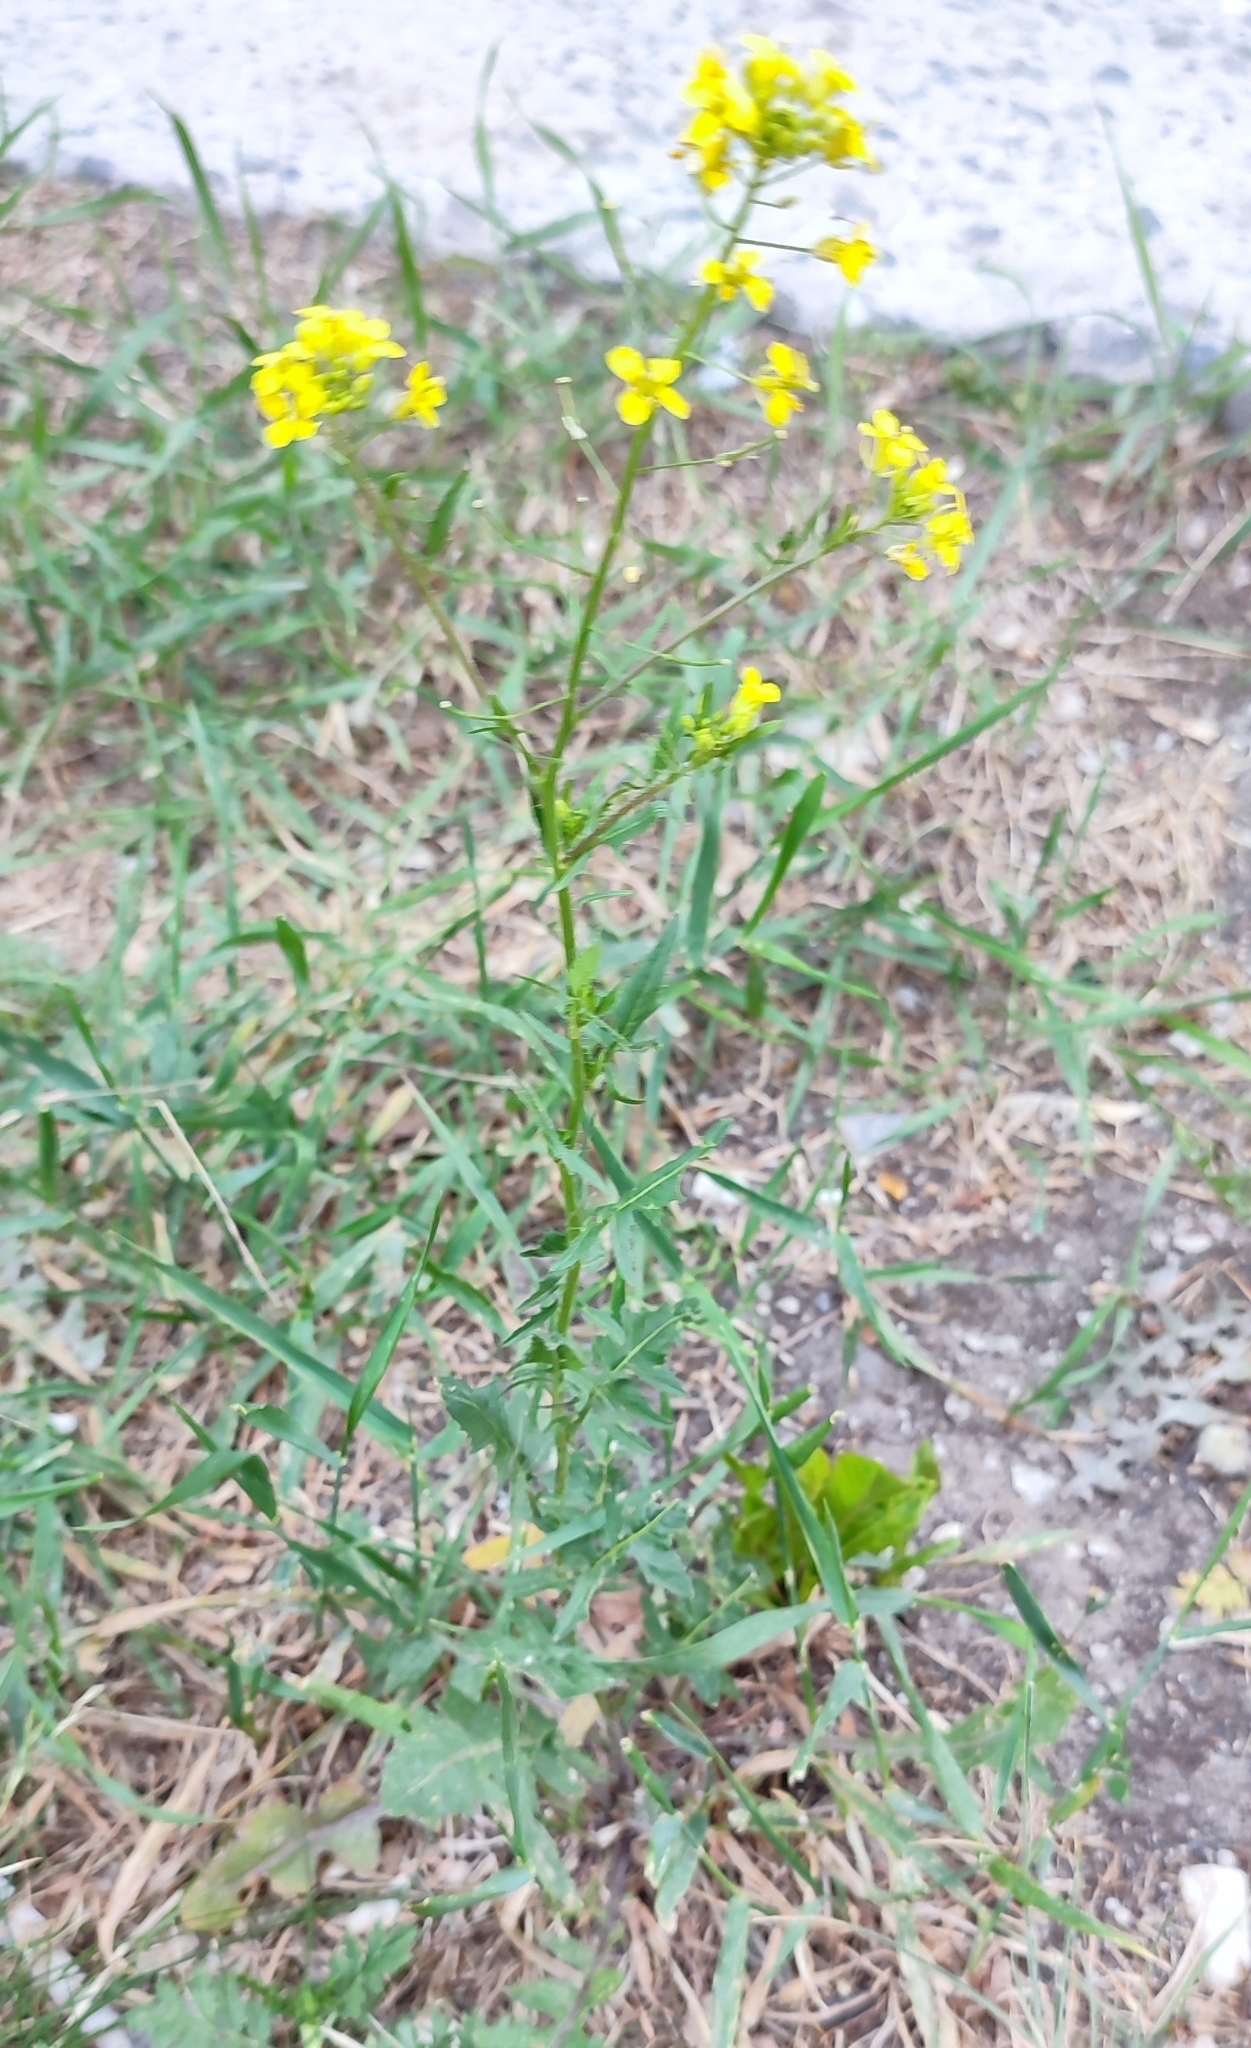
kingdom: Plantae
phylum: Tracheophyta
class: Magnoliopsida
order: Brassicales
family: Brassicaceae
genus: Sisymbrium
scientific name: Sisymbrium loeselii
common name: False london-rocket
